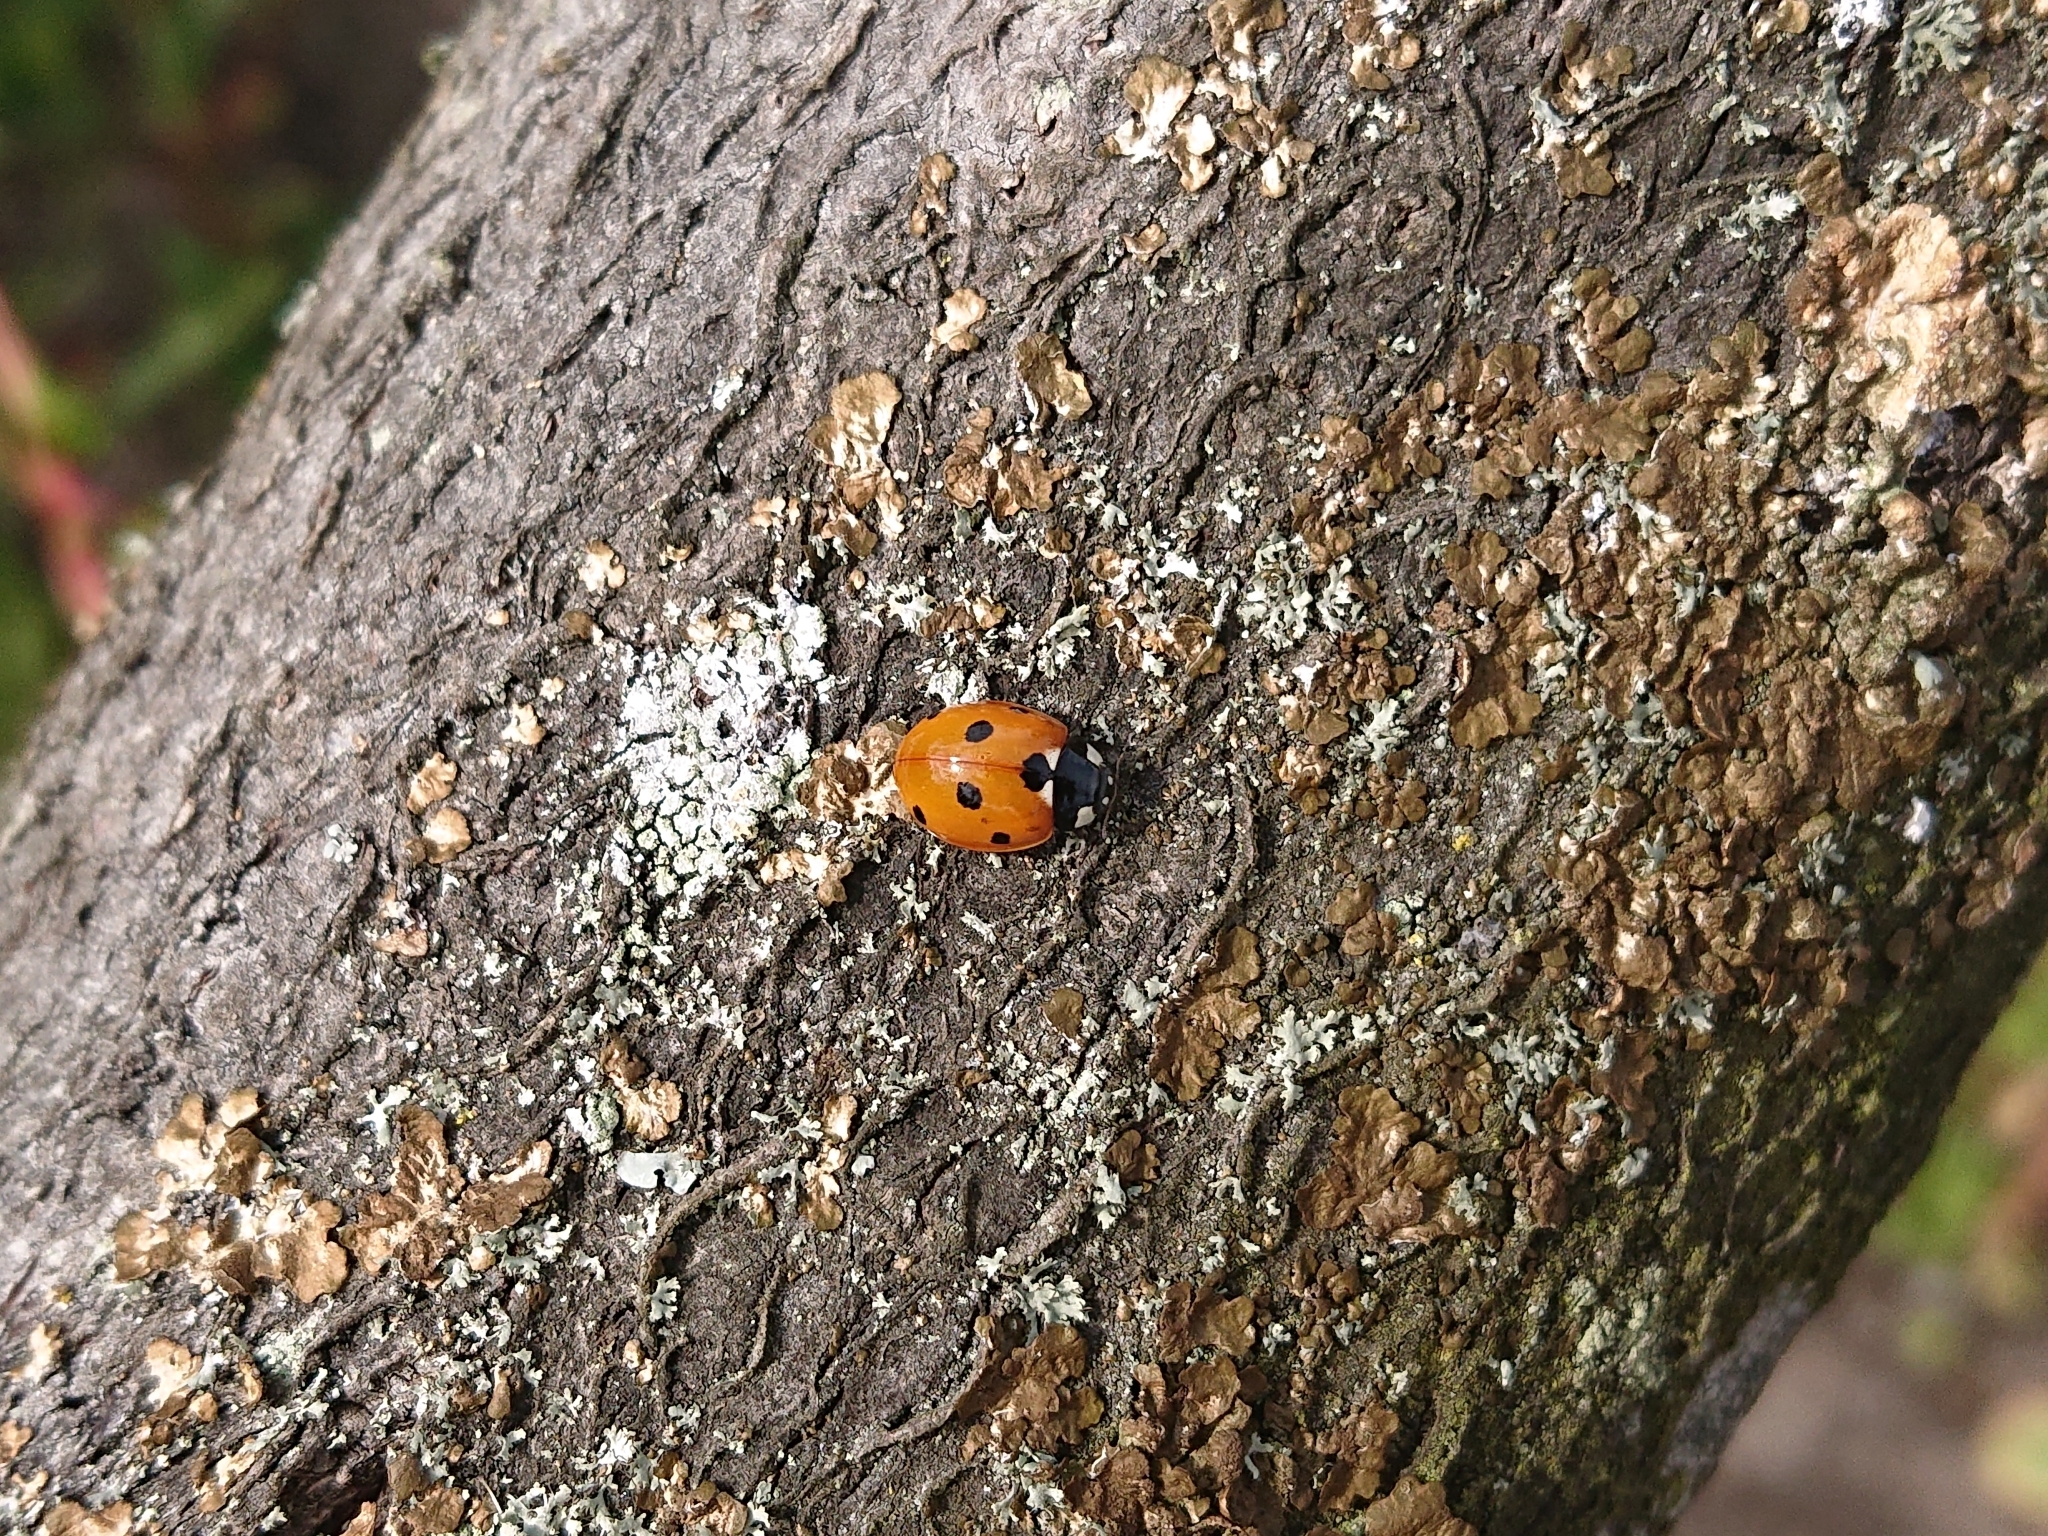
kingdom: Animalia
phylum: Arthropoda
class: Insecta
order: Coleoptera
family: Coccinellidae
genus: Coccinella
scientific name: Coccinella septempunctata
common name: Sevenspotted lady beetle
